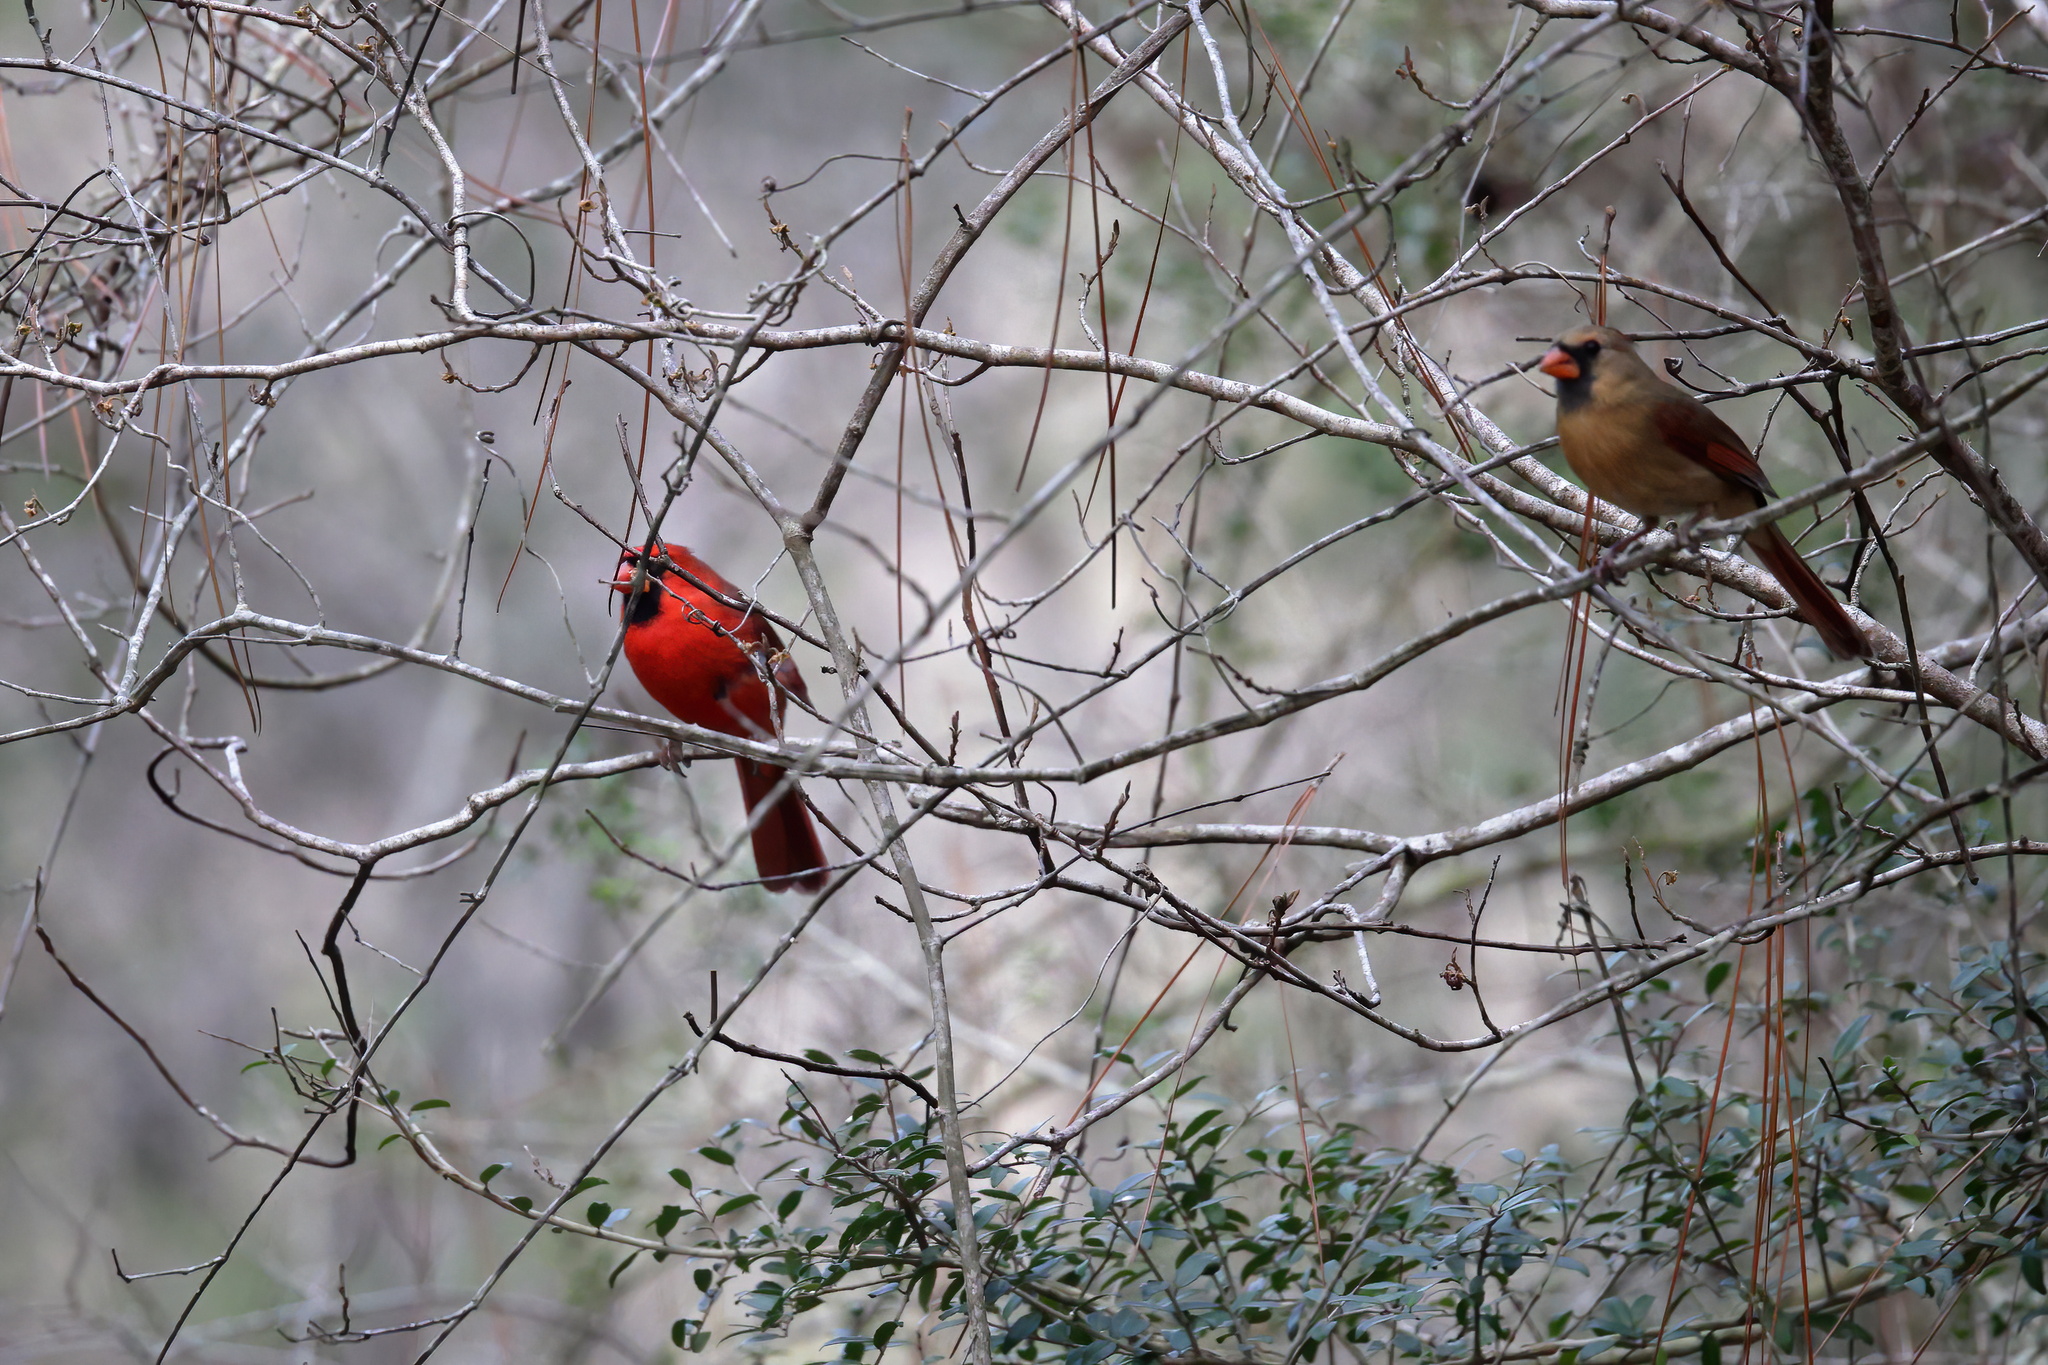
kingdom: Animalia
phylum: Chordata
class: Aves
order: Passeriformes
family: Cardinalidae
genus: Cardinalis
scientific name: Cardinalis cardinalis
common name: Northern cardinal
